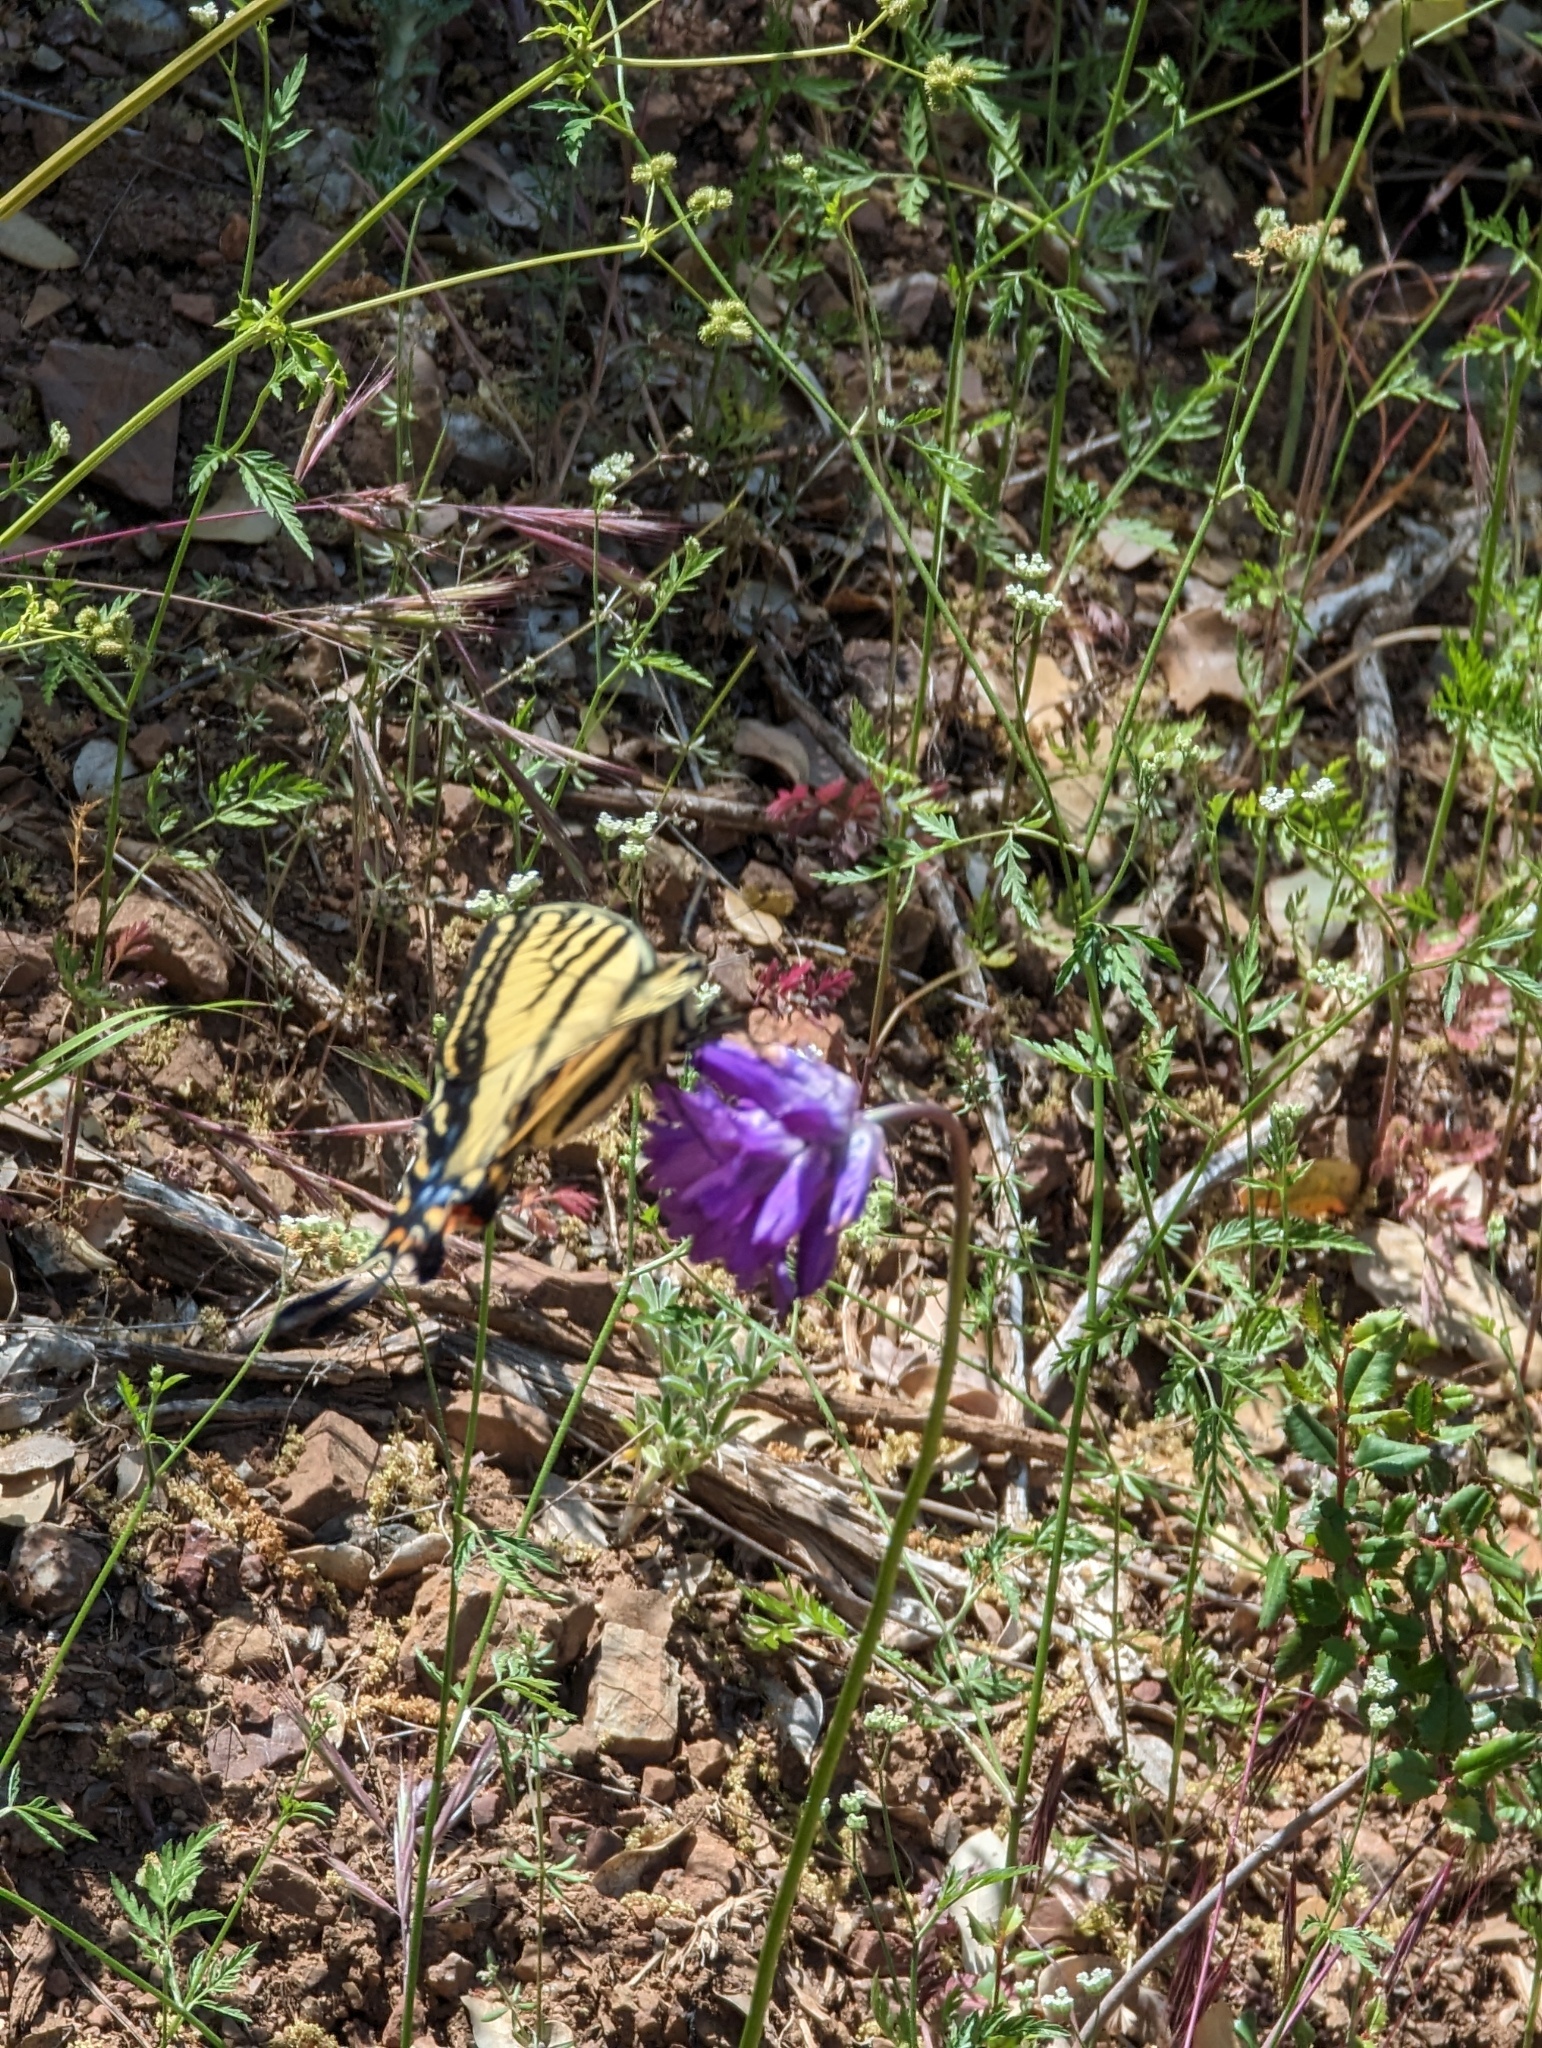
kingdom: Animalia
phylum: Arthropoda
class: Insecta
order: Lepidoptera
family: Papilionidae
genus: Papilio
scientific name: Papilio multicaudata
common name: Two-tailed tiger swallowtail
